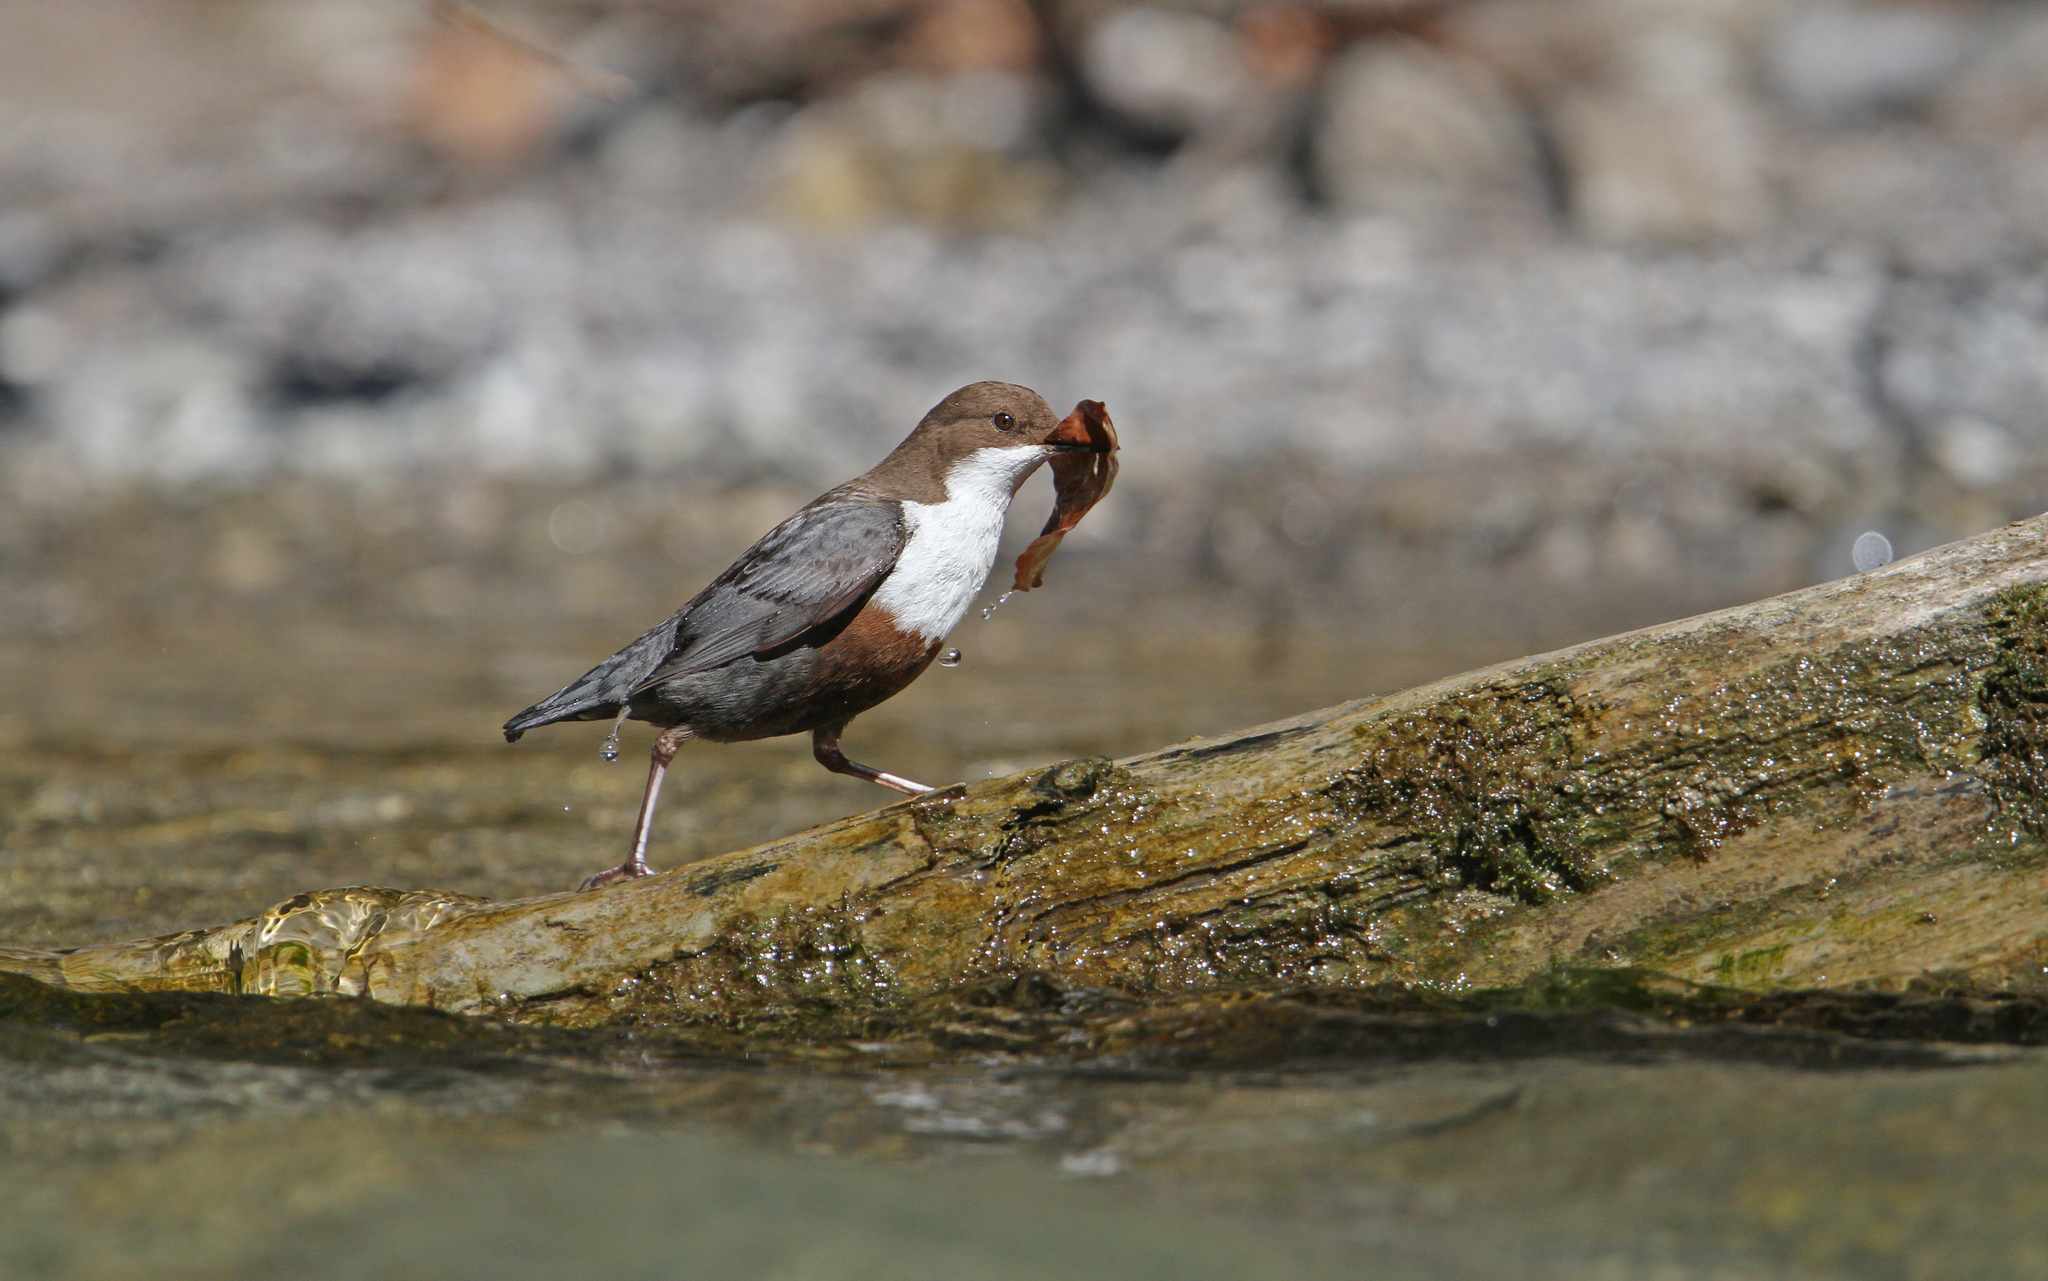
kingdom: Animalia
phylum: Chordata
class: Aves
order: Passeriformes
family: Cinclidae
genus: Cinclus
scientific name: Cinclus cinclus
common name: White-throated dipper
